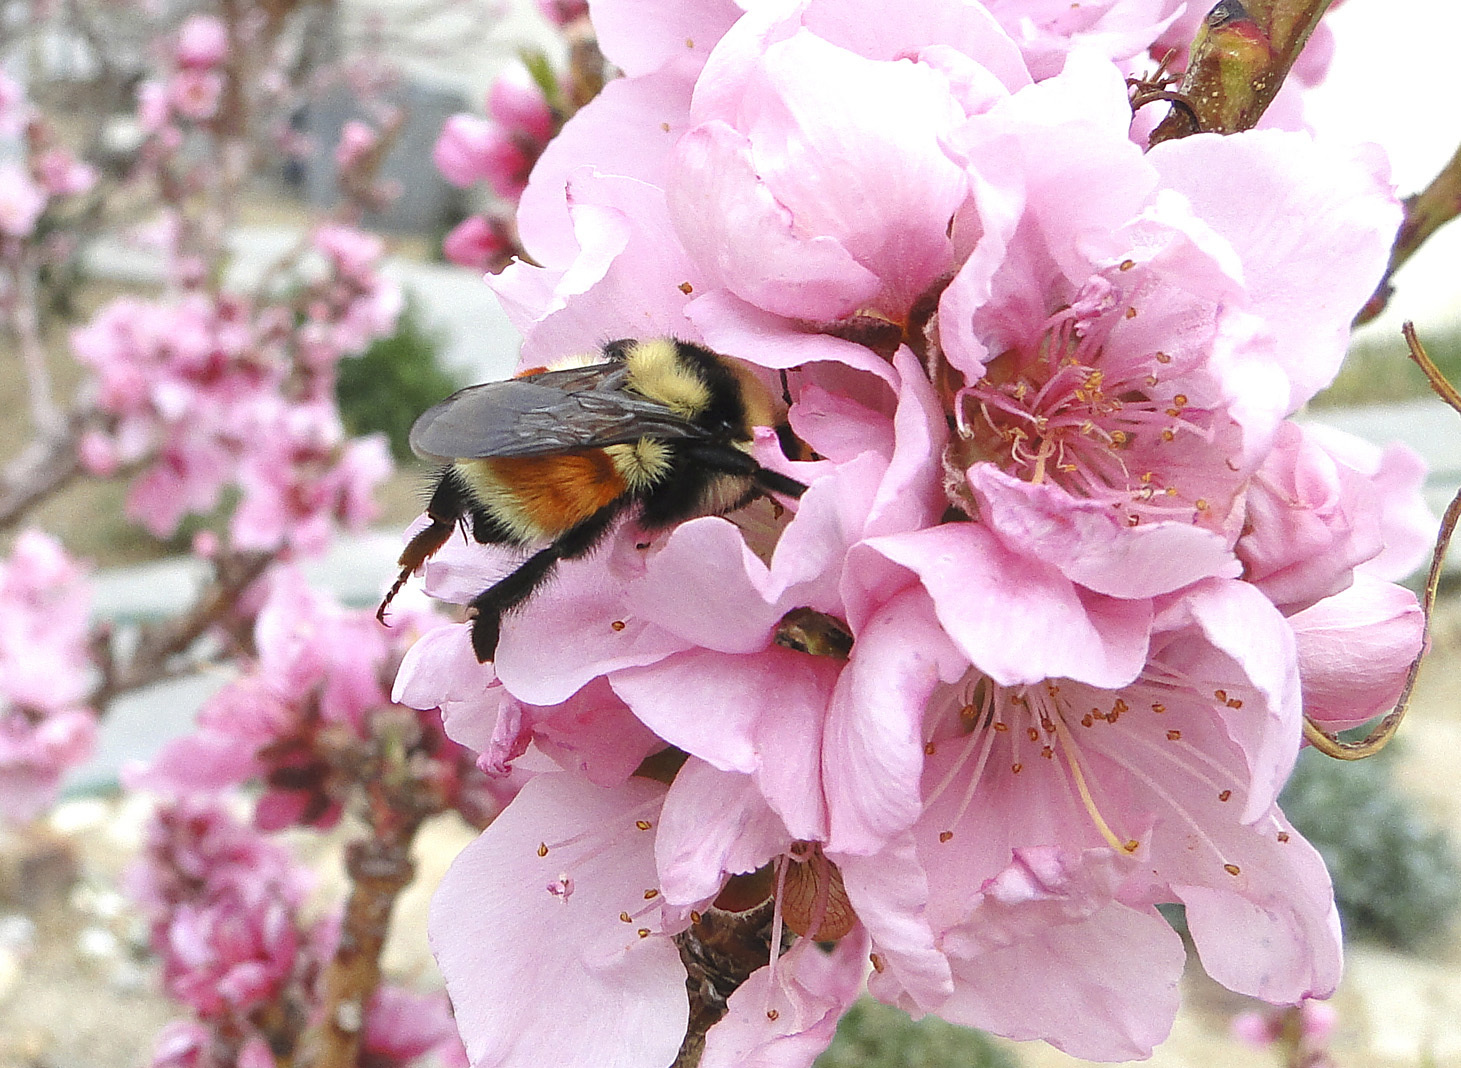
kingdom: Animalia
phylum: Arthropoda
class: Insecta
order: Hymenoptera
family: Apidae
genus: Bombus
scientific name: Bombus huntii
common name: Hunt bumble bee
